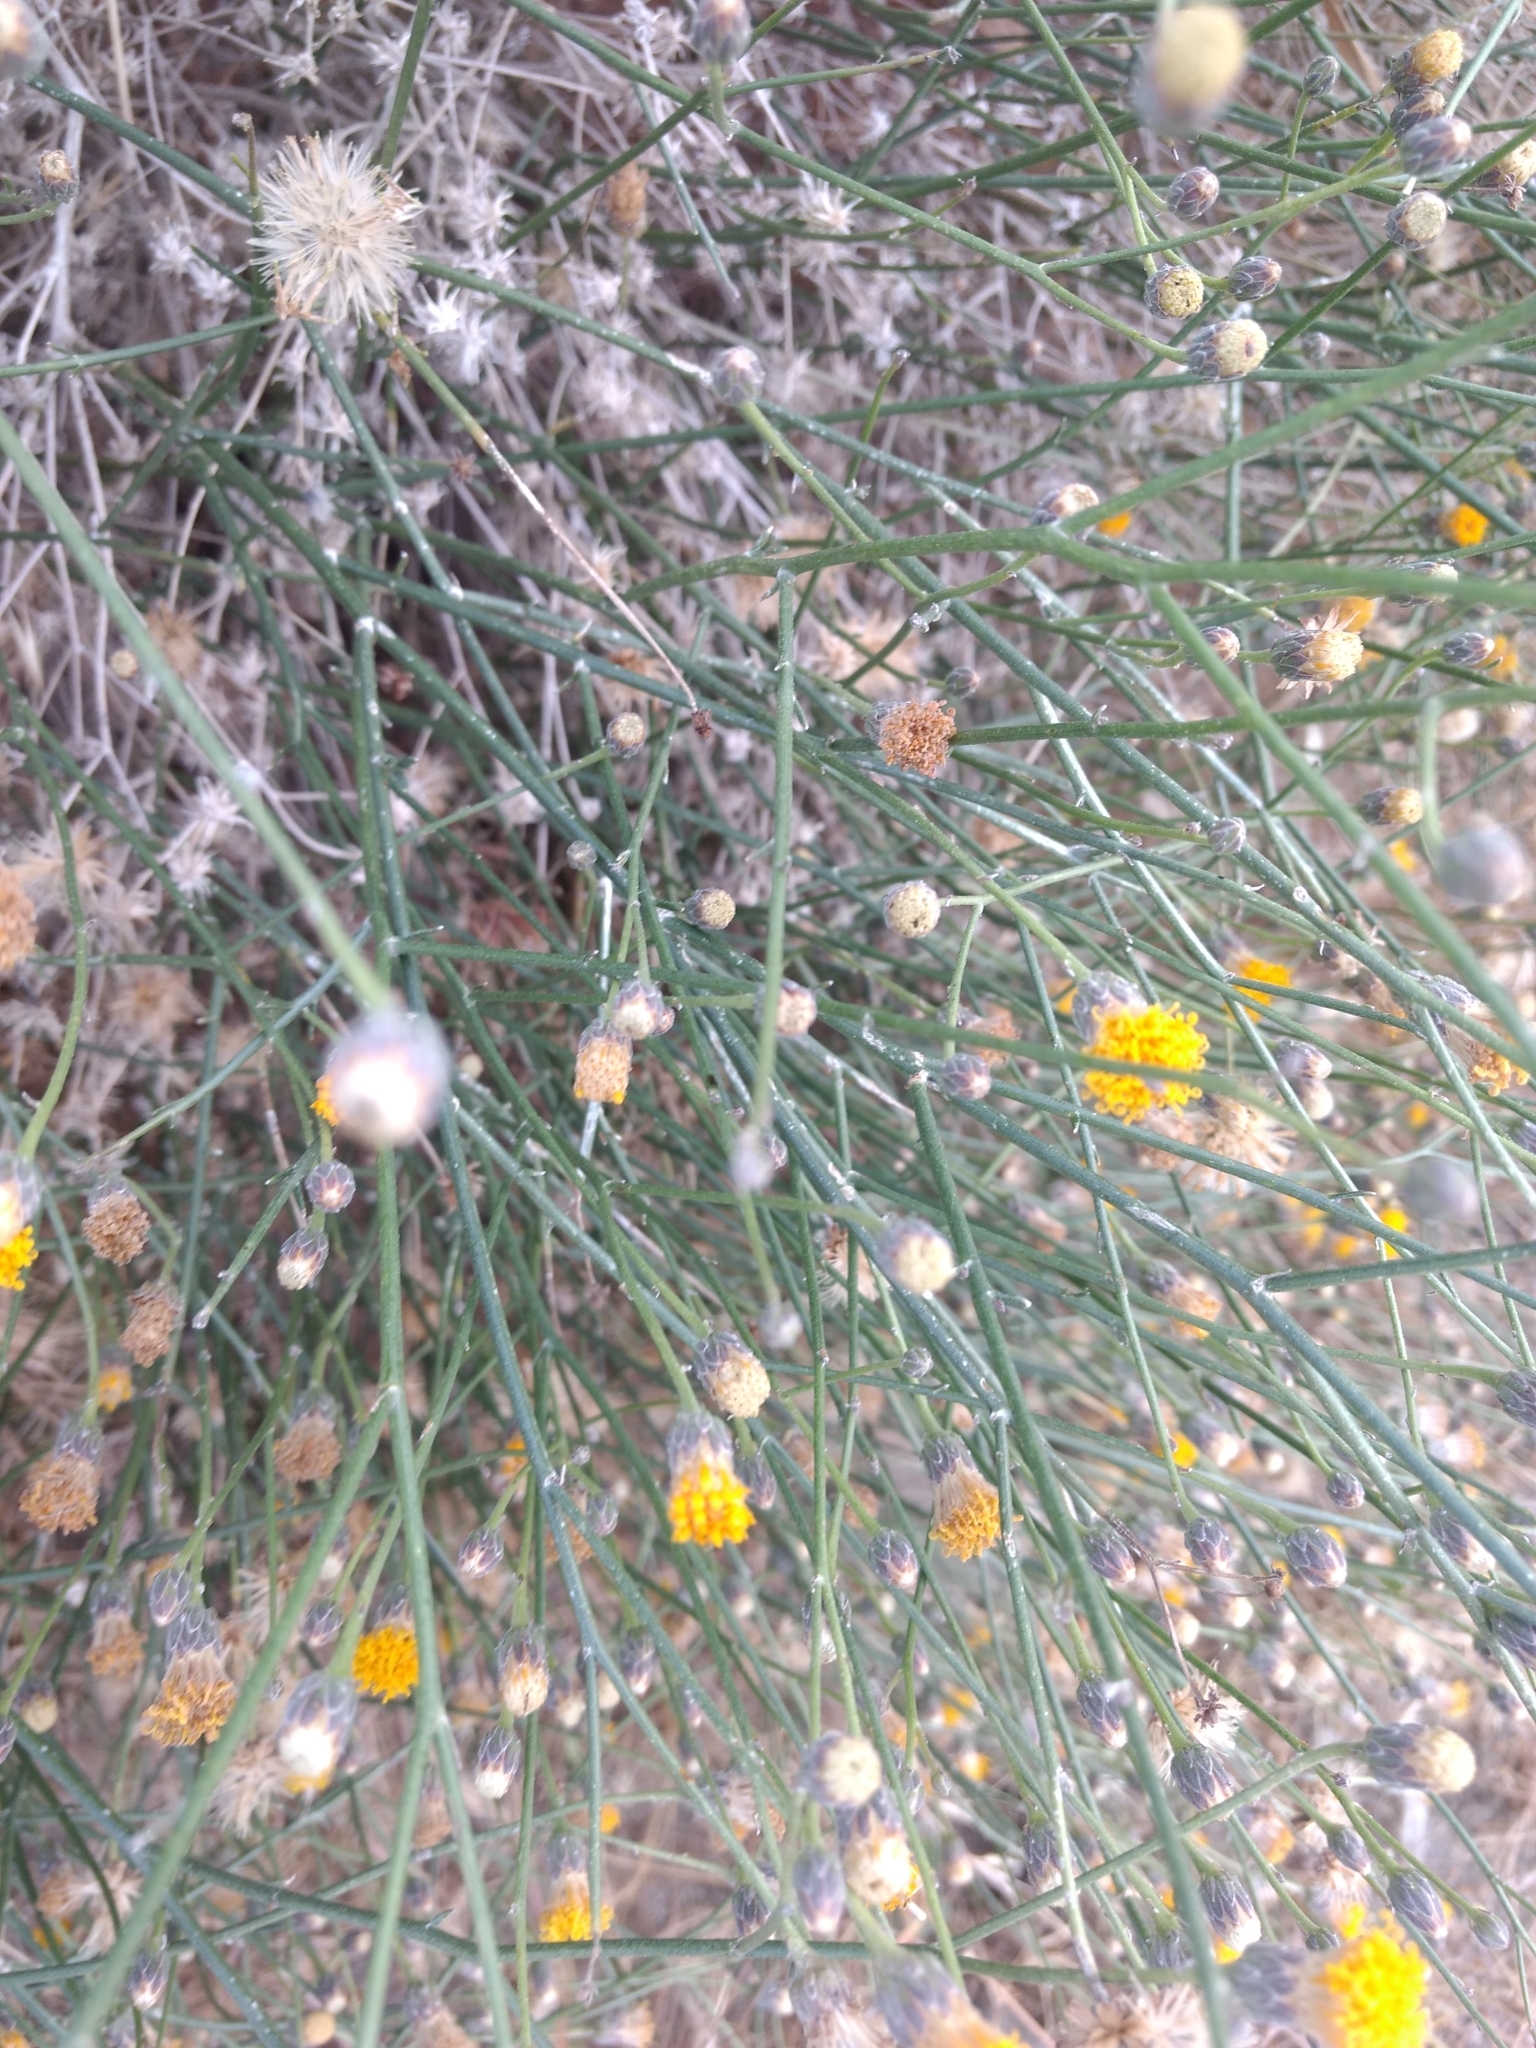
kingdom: Plantae
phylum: Tracheophyta
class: Magnoliopsida
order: Asterales
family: Asteraceae
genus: Bebbia
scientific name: Bebbia juncea
